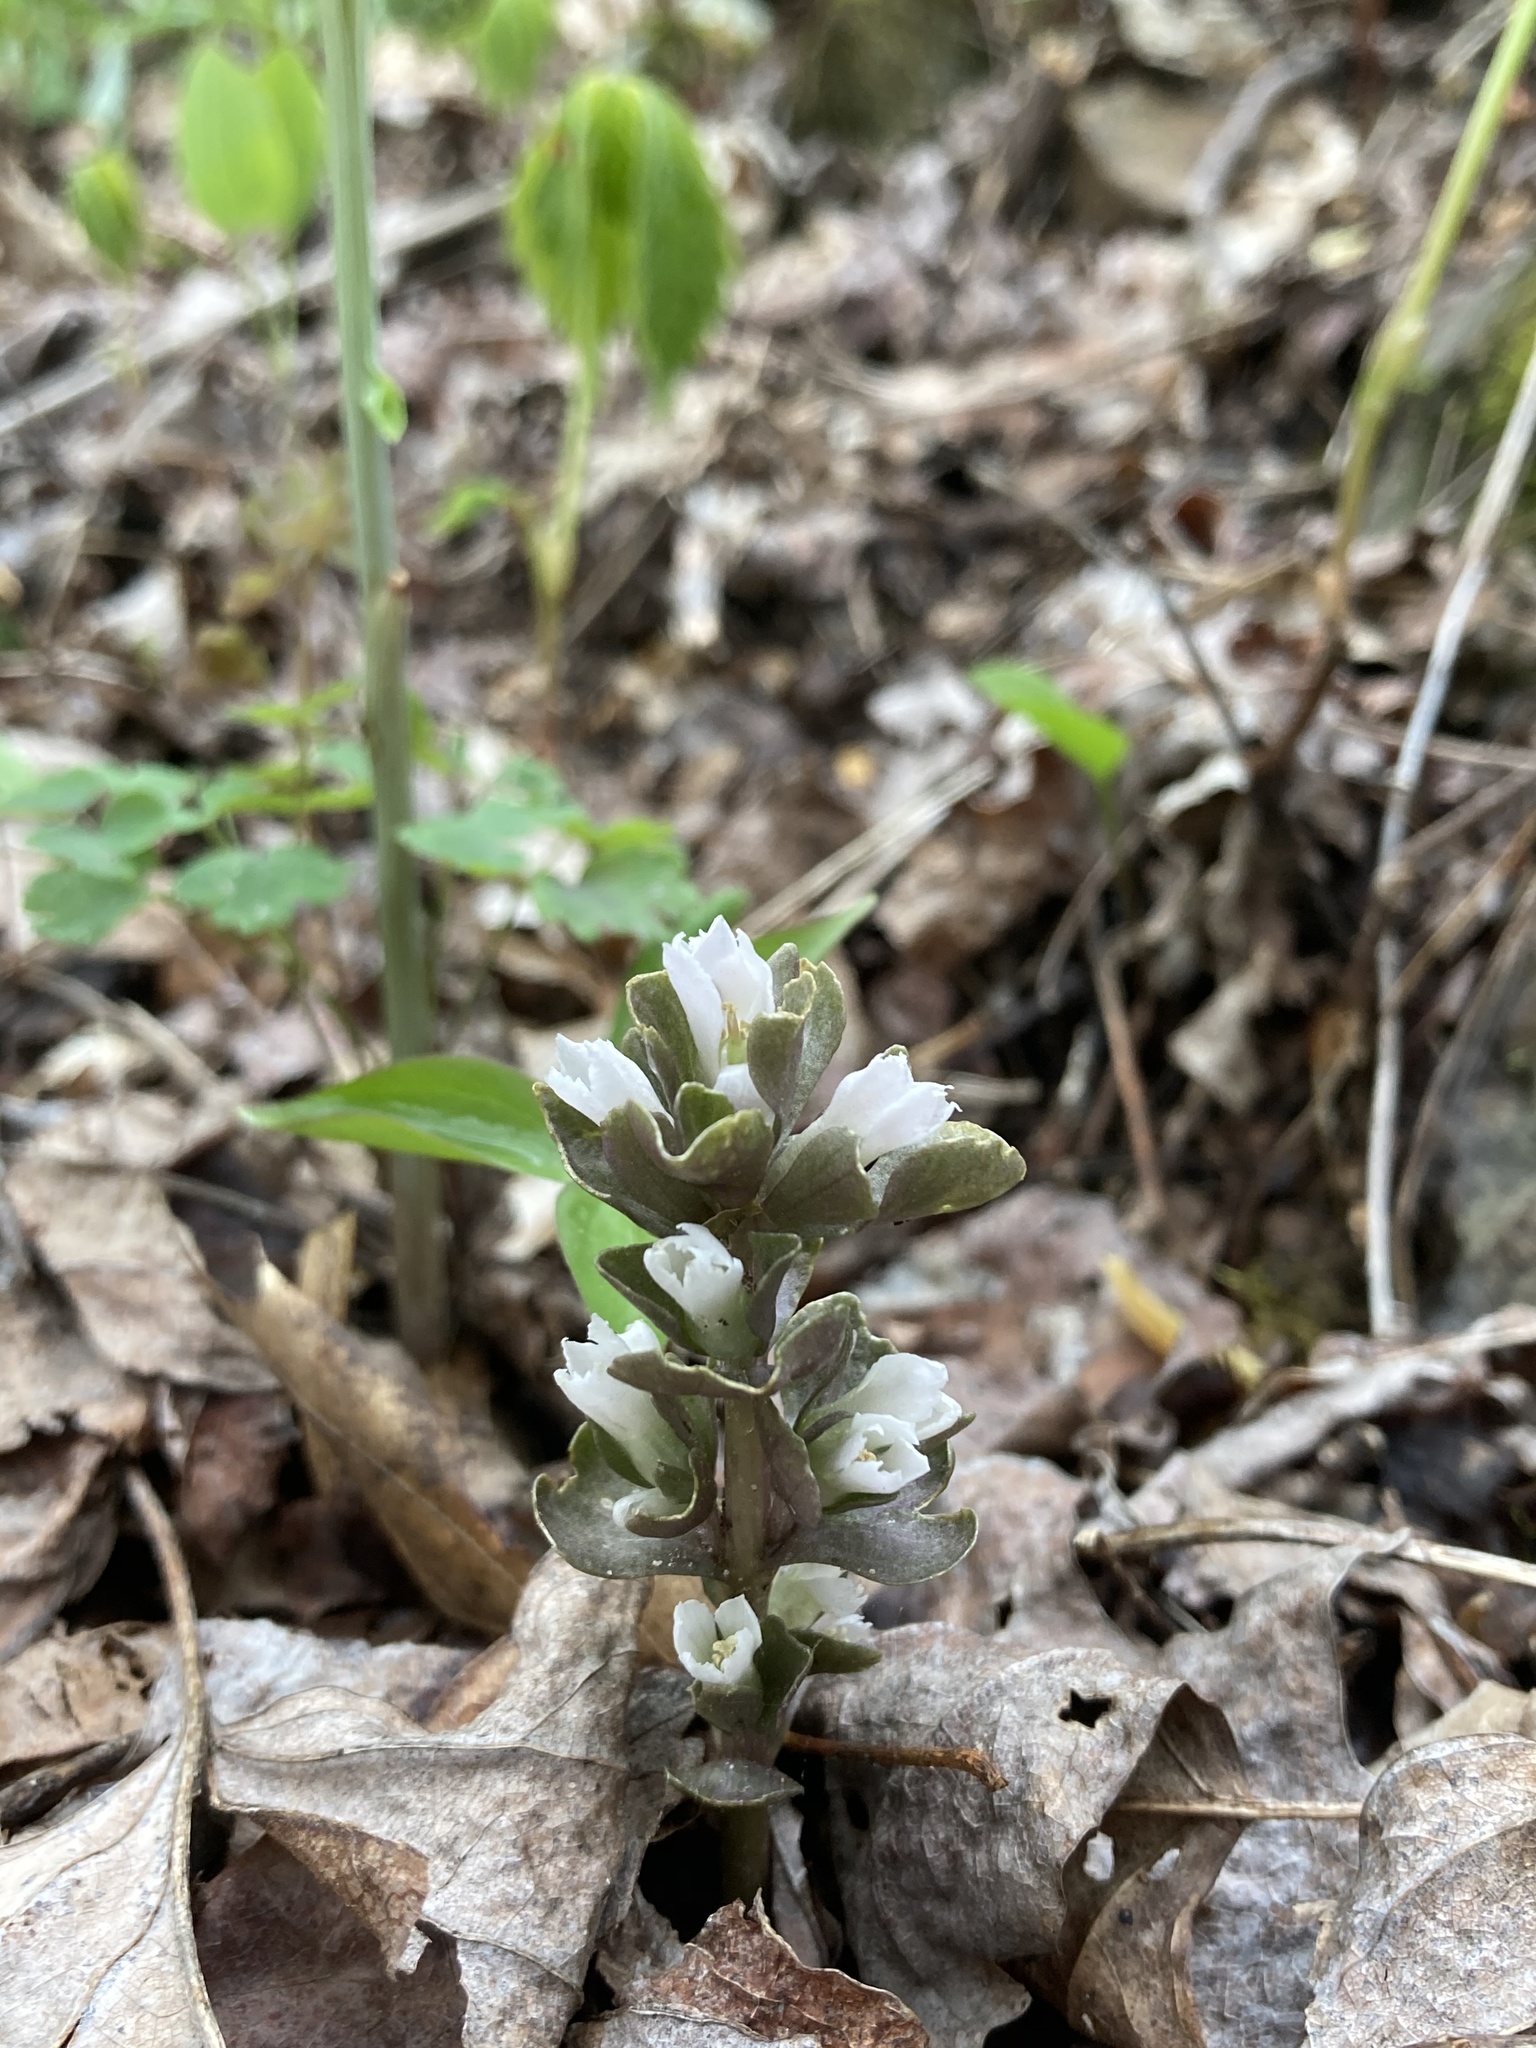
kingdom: Plantae
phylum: Tracheophyta
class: Magnoliopsida
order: Gentianales
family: Gentianaceae
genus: Obolaria
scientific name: Obolaria virginica
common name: Pennywort
